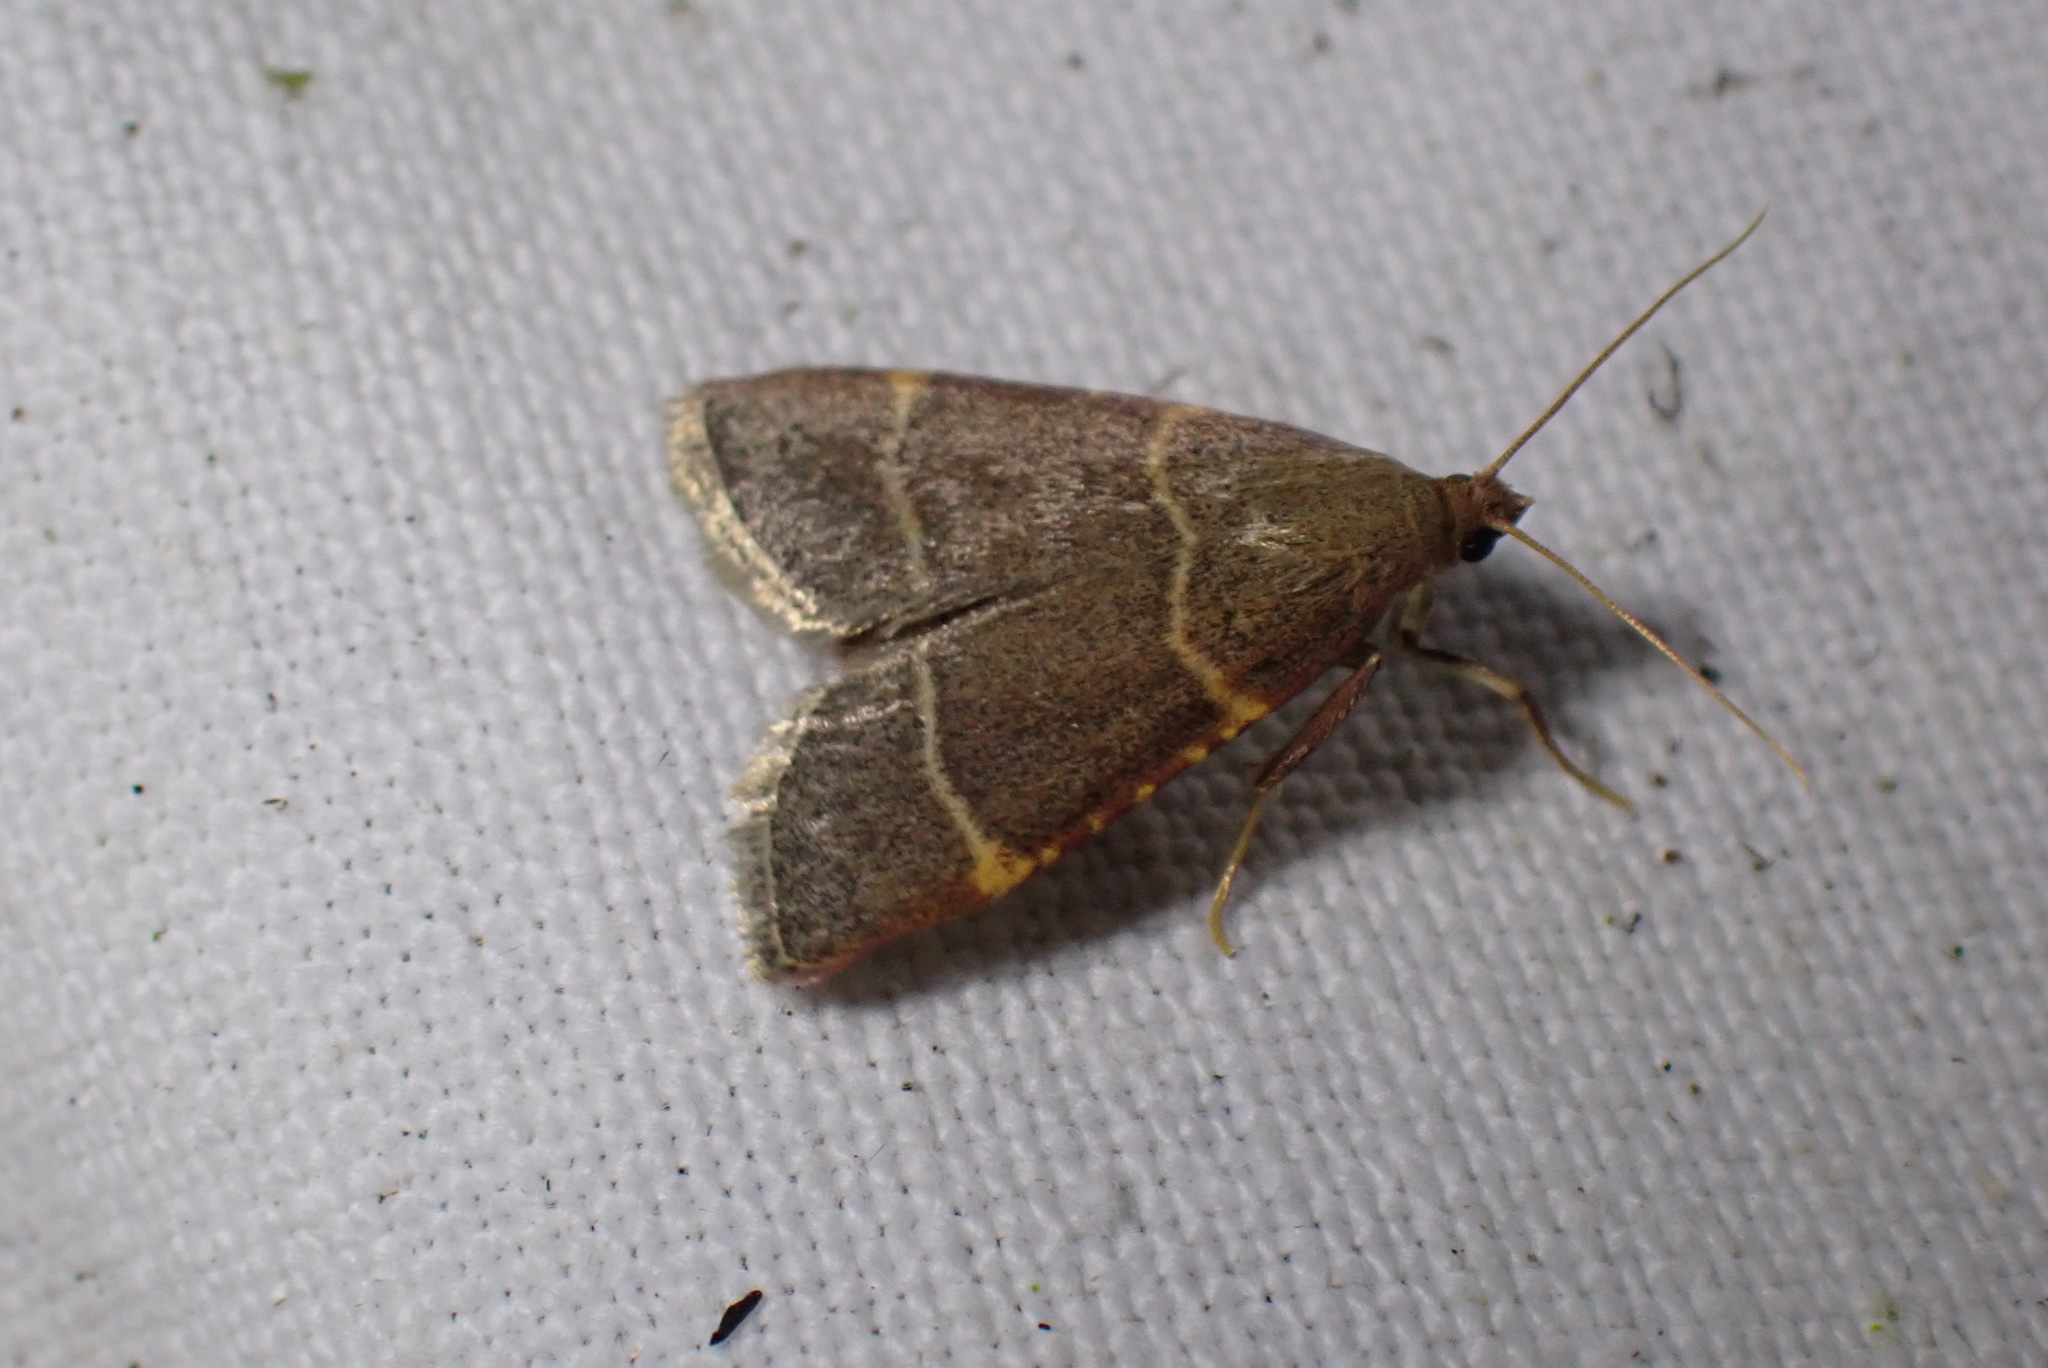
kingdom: Animalia
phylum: Arthropoda
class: Insecta
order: Lepidoptera
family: Pyralidae
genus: Hypsopygia
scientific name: Hypsopygia glaucinalis
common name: Double-striped tabby
